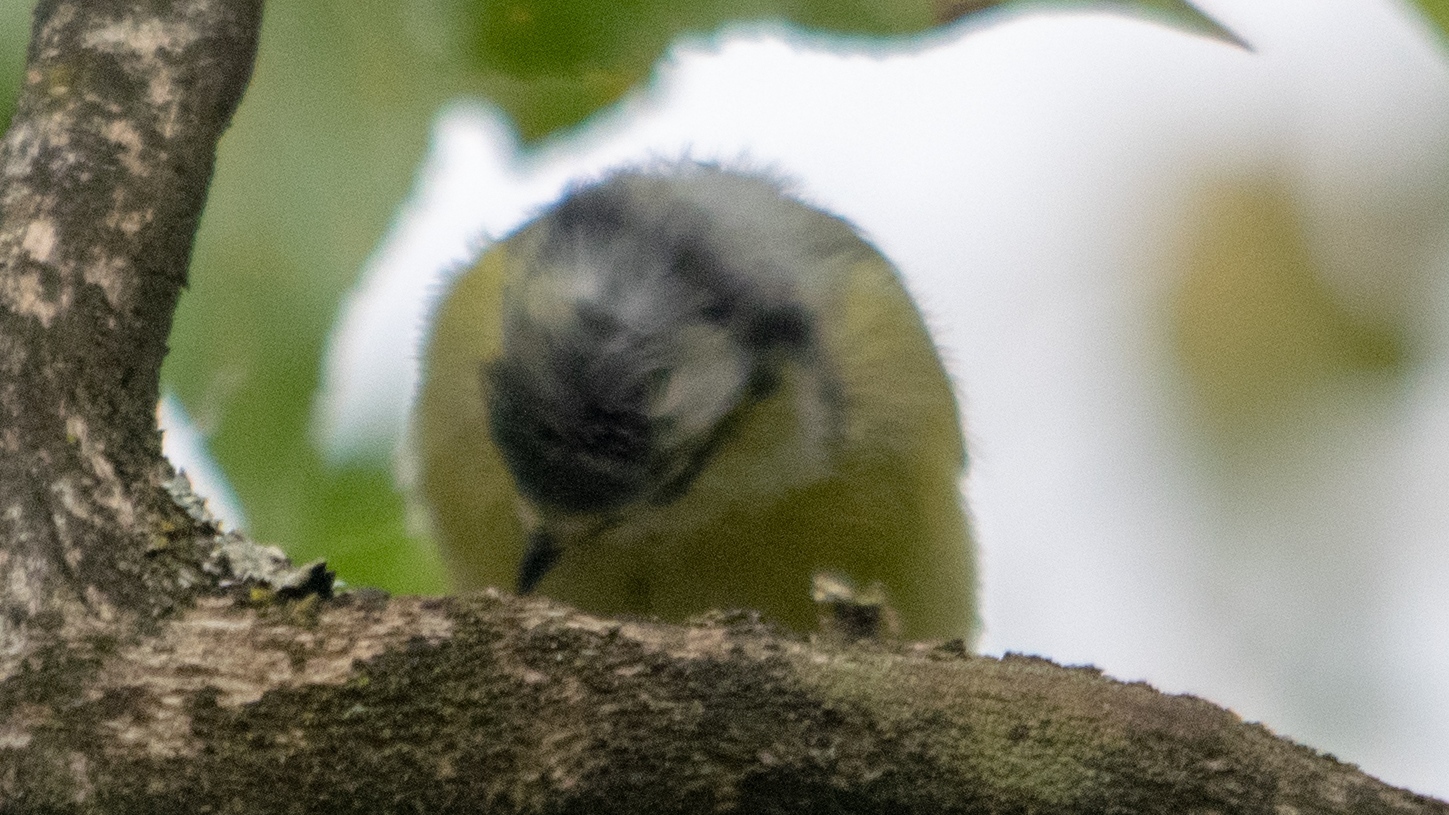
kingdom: Animalia
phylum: Chordata
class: Aves
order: Passeriformes
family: Paridae
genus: Cyanistes
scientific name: Cyanistes caeruleus
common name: Eurasian blue tit
